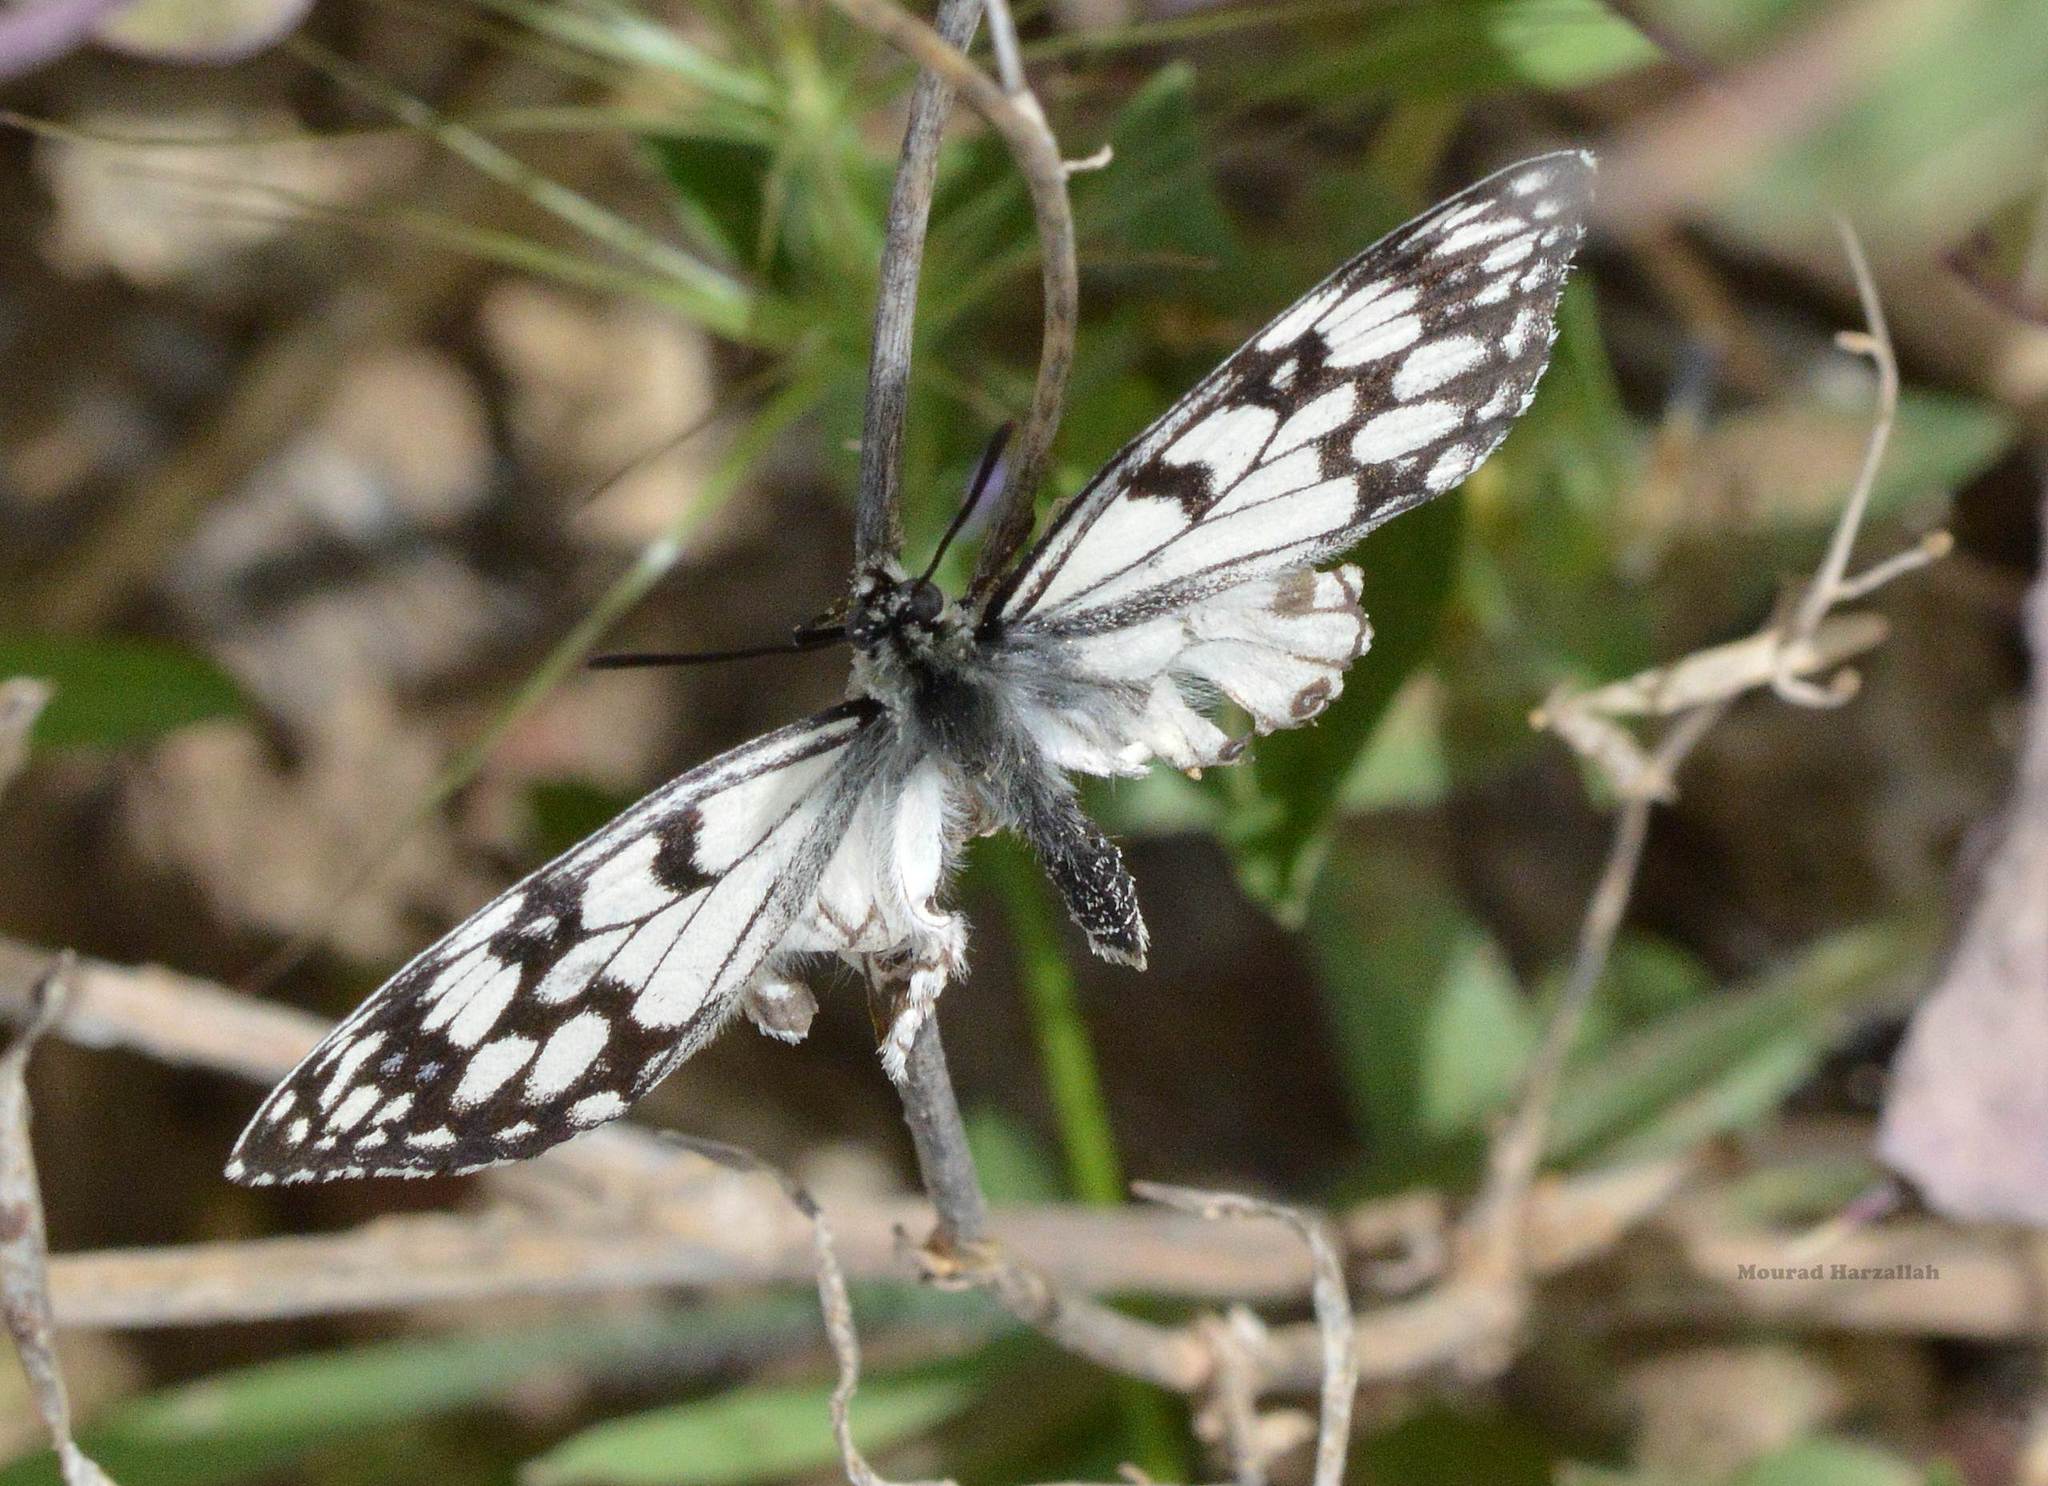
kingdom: Animalia
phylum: Arthropoda
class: Insecta
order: Lepidoptera
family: Nymphalidae
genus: Melanargia
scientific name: Melanargia ines
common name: Spanish marbled white
